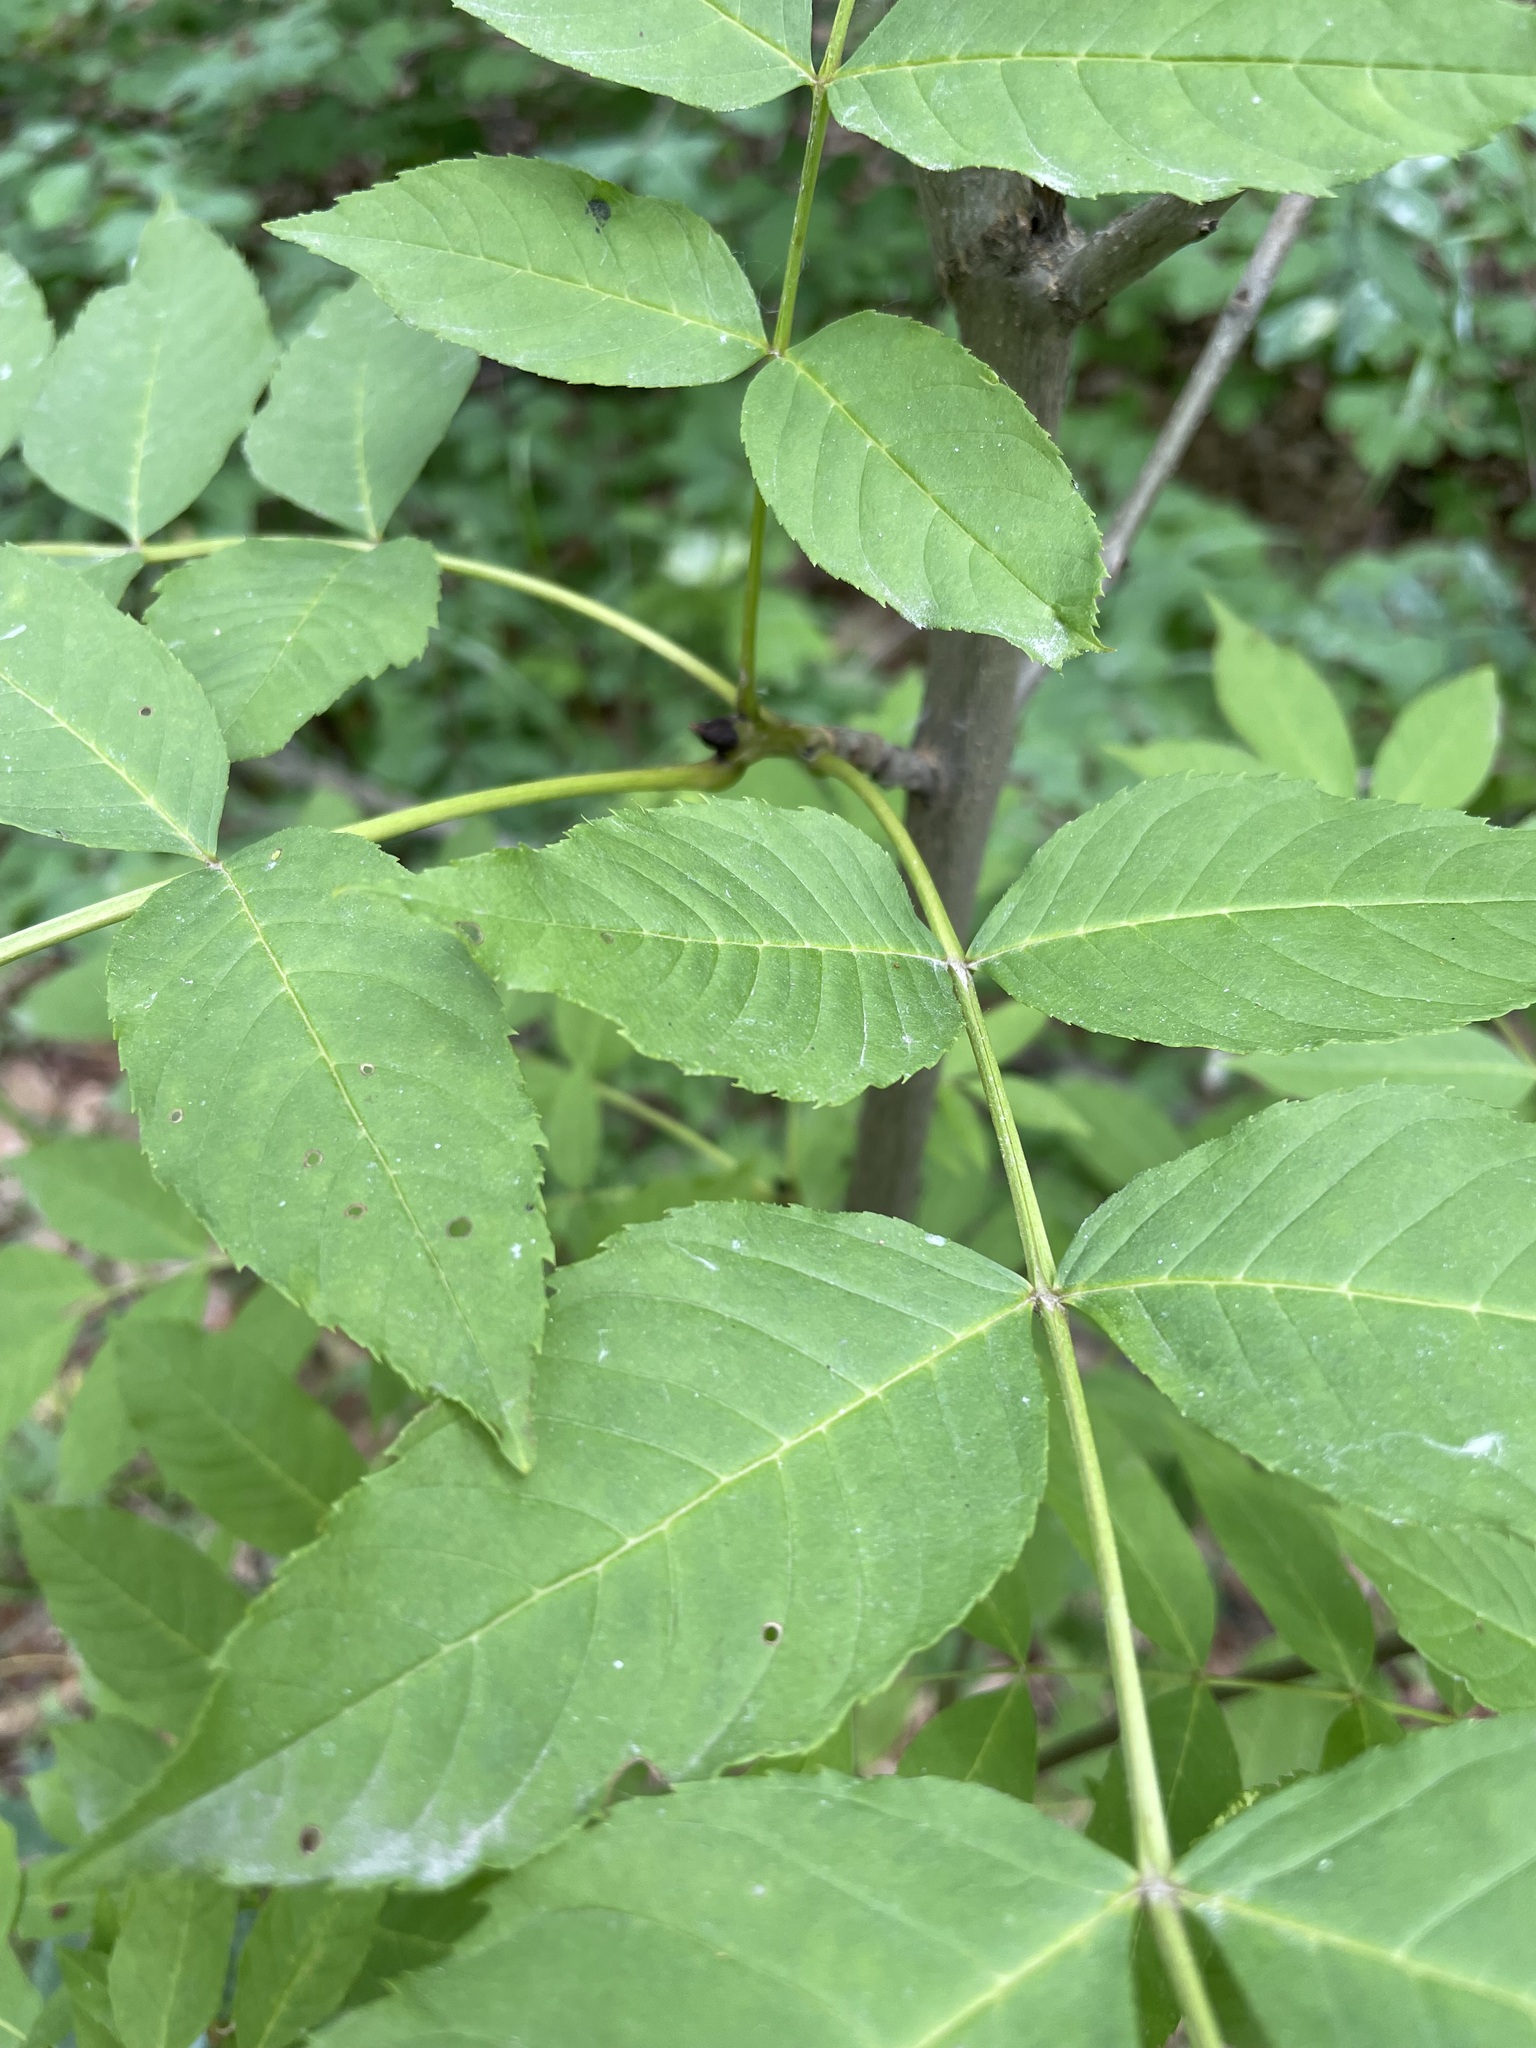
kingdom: Plantae
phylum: Tracheophyta
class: Magnoliopsida
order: Lamiales
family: Oleaceae
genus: Fraxinus
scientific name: Fraxinus excelsior
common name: European ash
